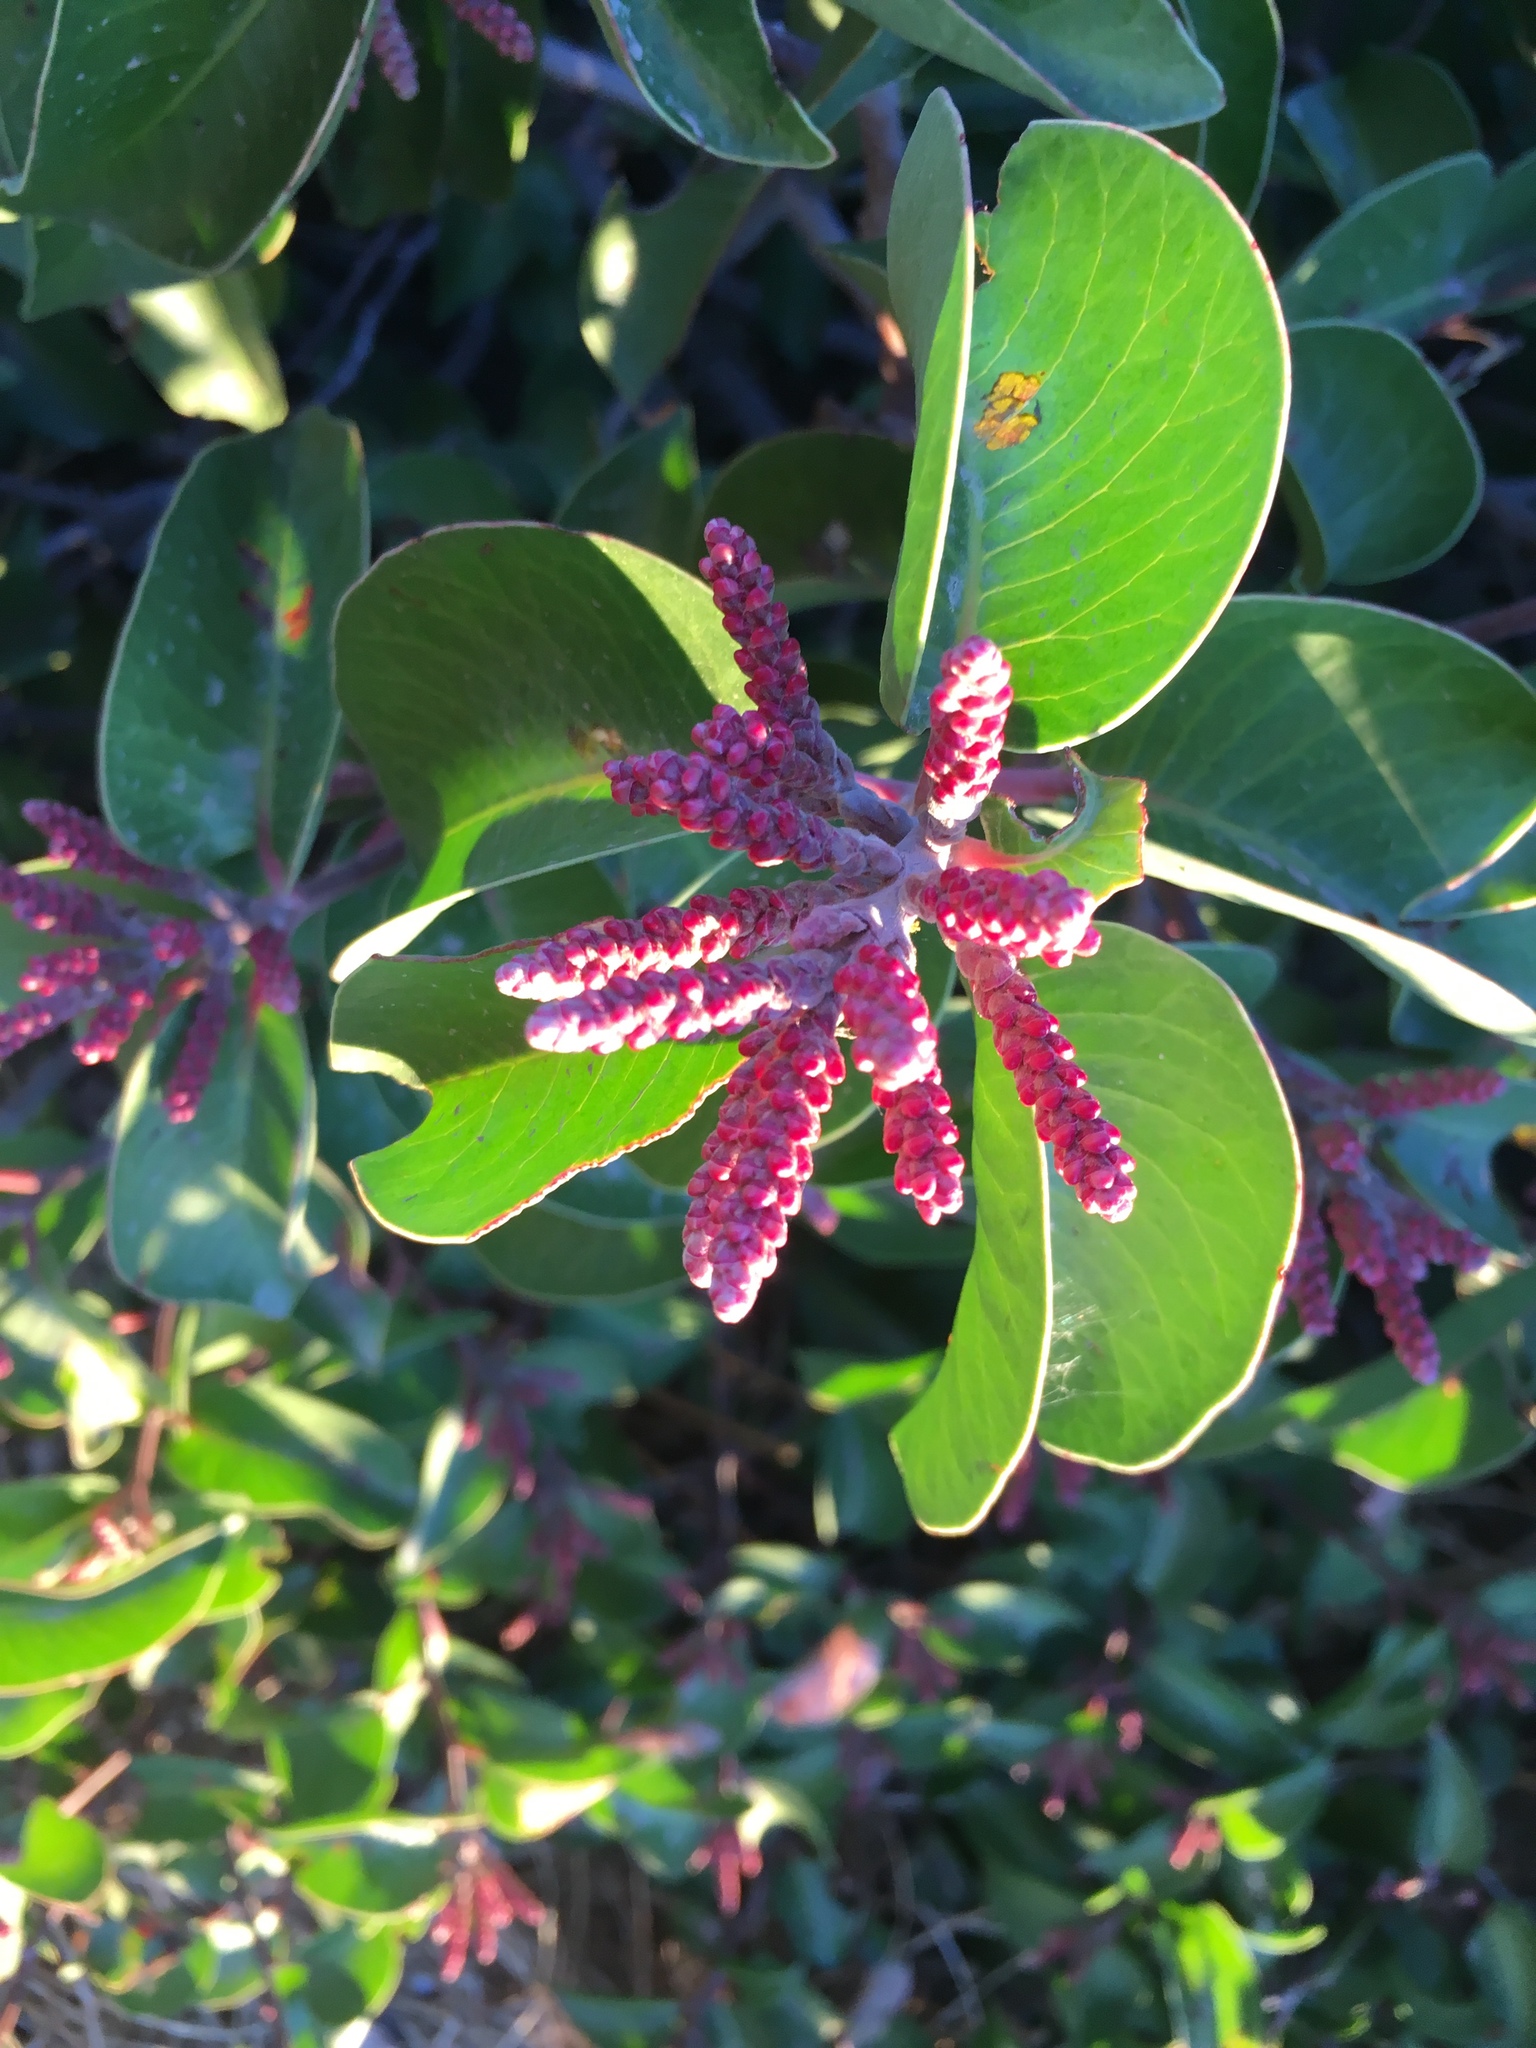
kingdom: Plantae
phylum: Tracheophyta
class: Magnoliopsida
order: Sapindales
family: Anacardiaceae
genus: Rhus
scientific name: Rhus ovata
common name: Sugar sumac
